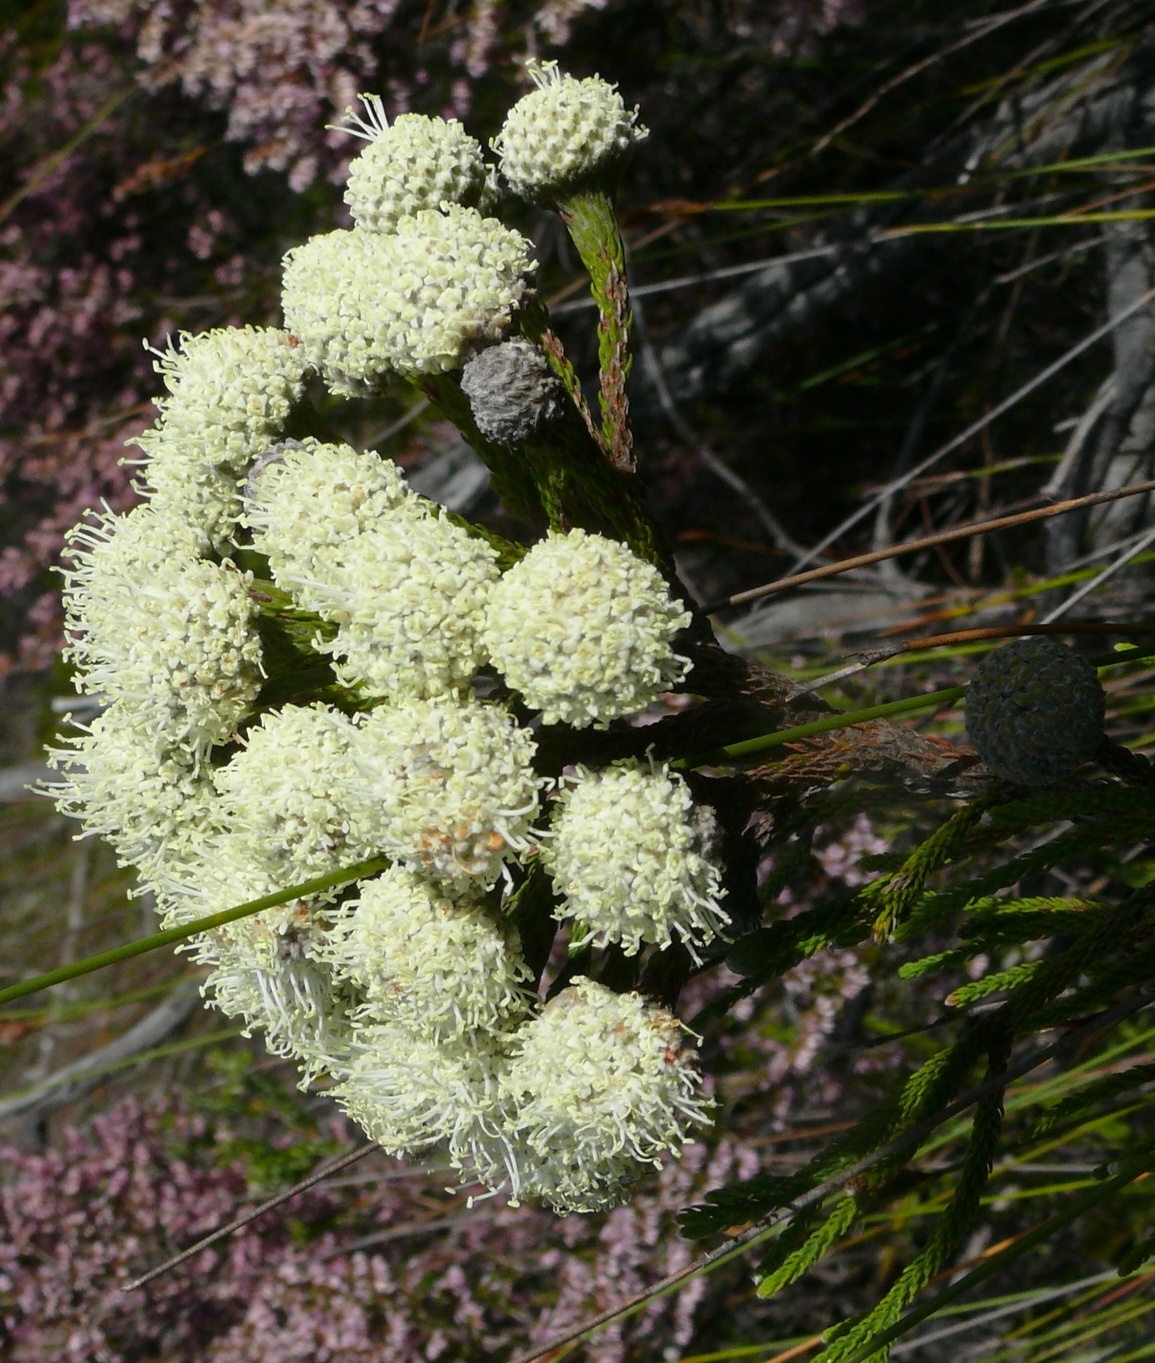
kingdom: Plantae
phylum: Tracheophyta
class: Magnoliopsida
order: Bruniales
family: Bruniaceae
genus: Brunia
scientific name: Brunia noduliflora
